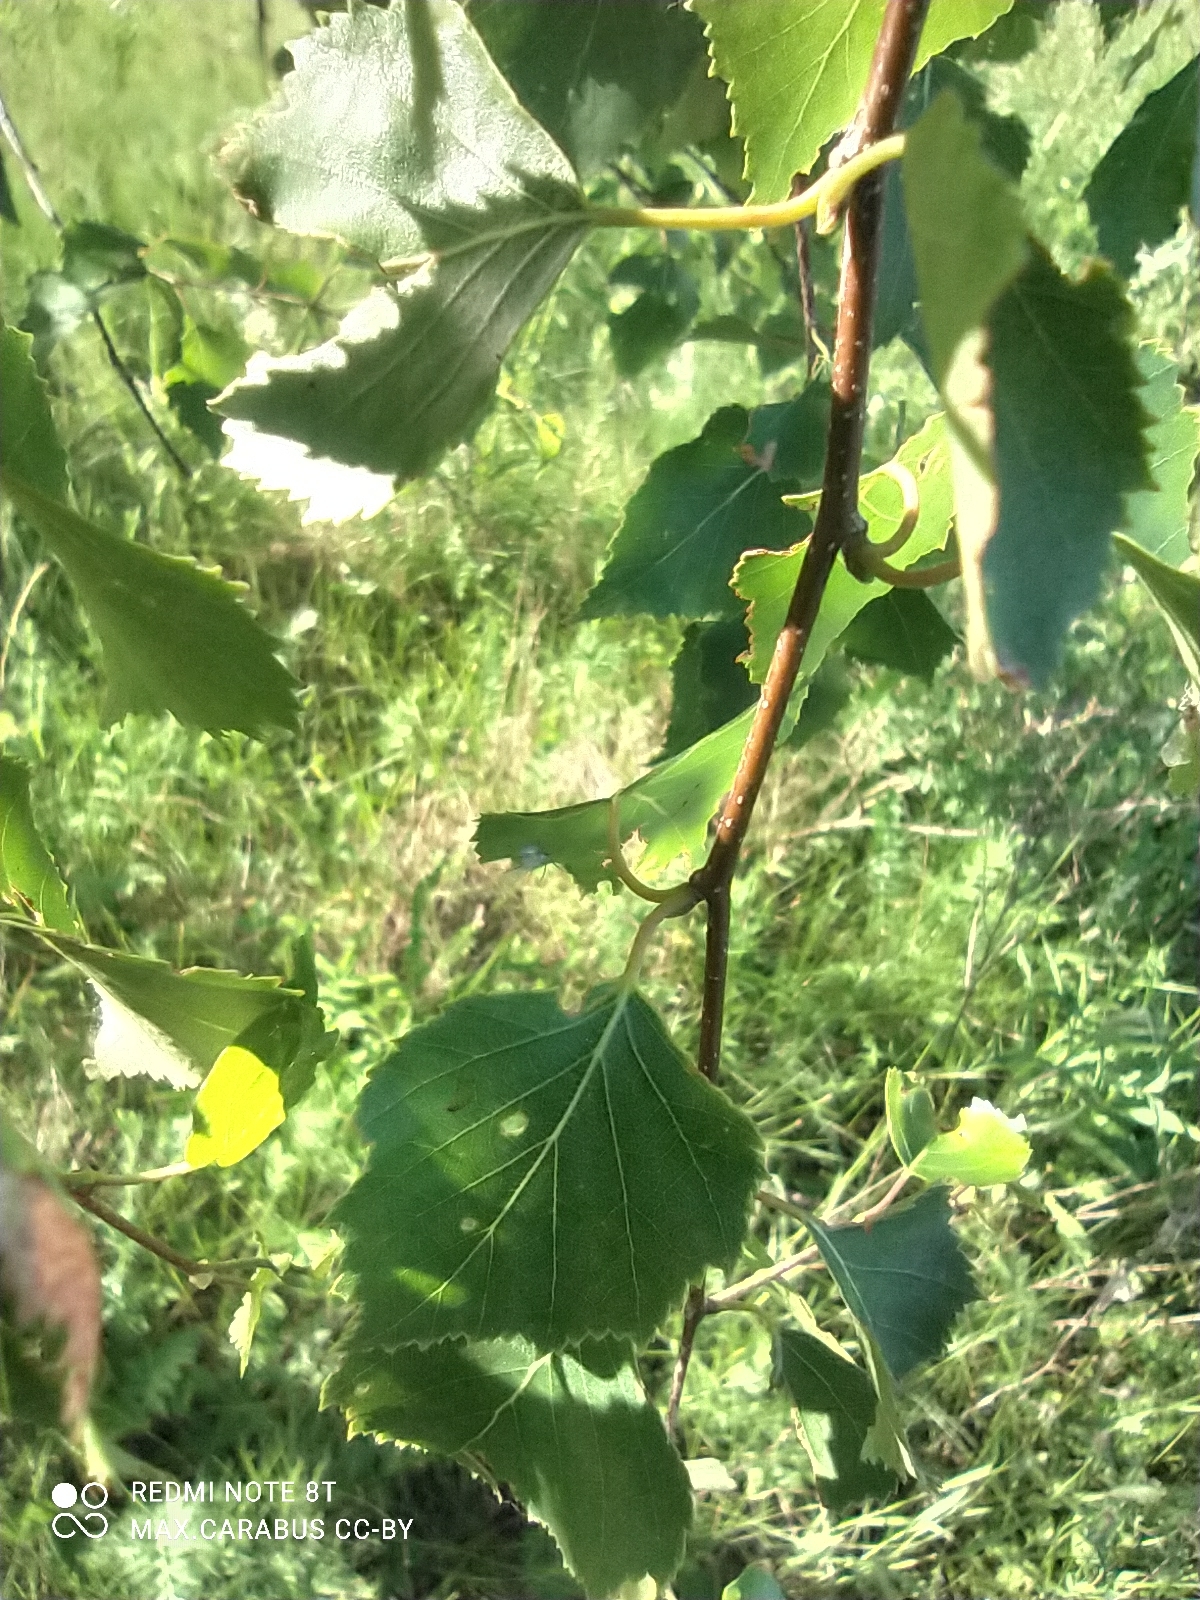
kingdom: Plantae
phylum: Tracheophyta
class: Magnoliopsida
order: Fagales
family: Betulaceae
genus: Betula
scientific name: Betula pendula
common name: Silver birch
